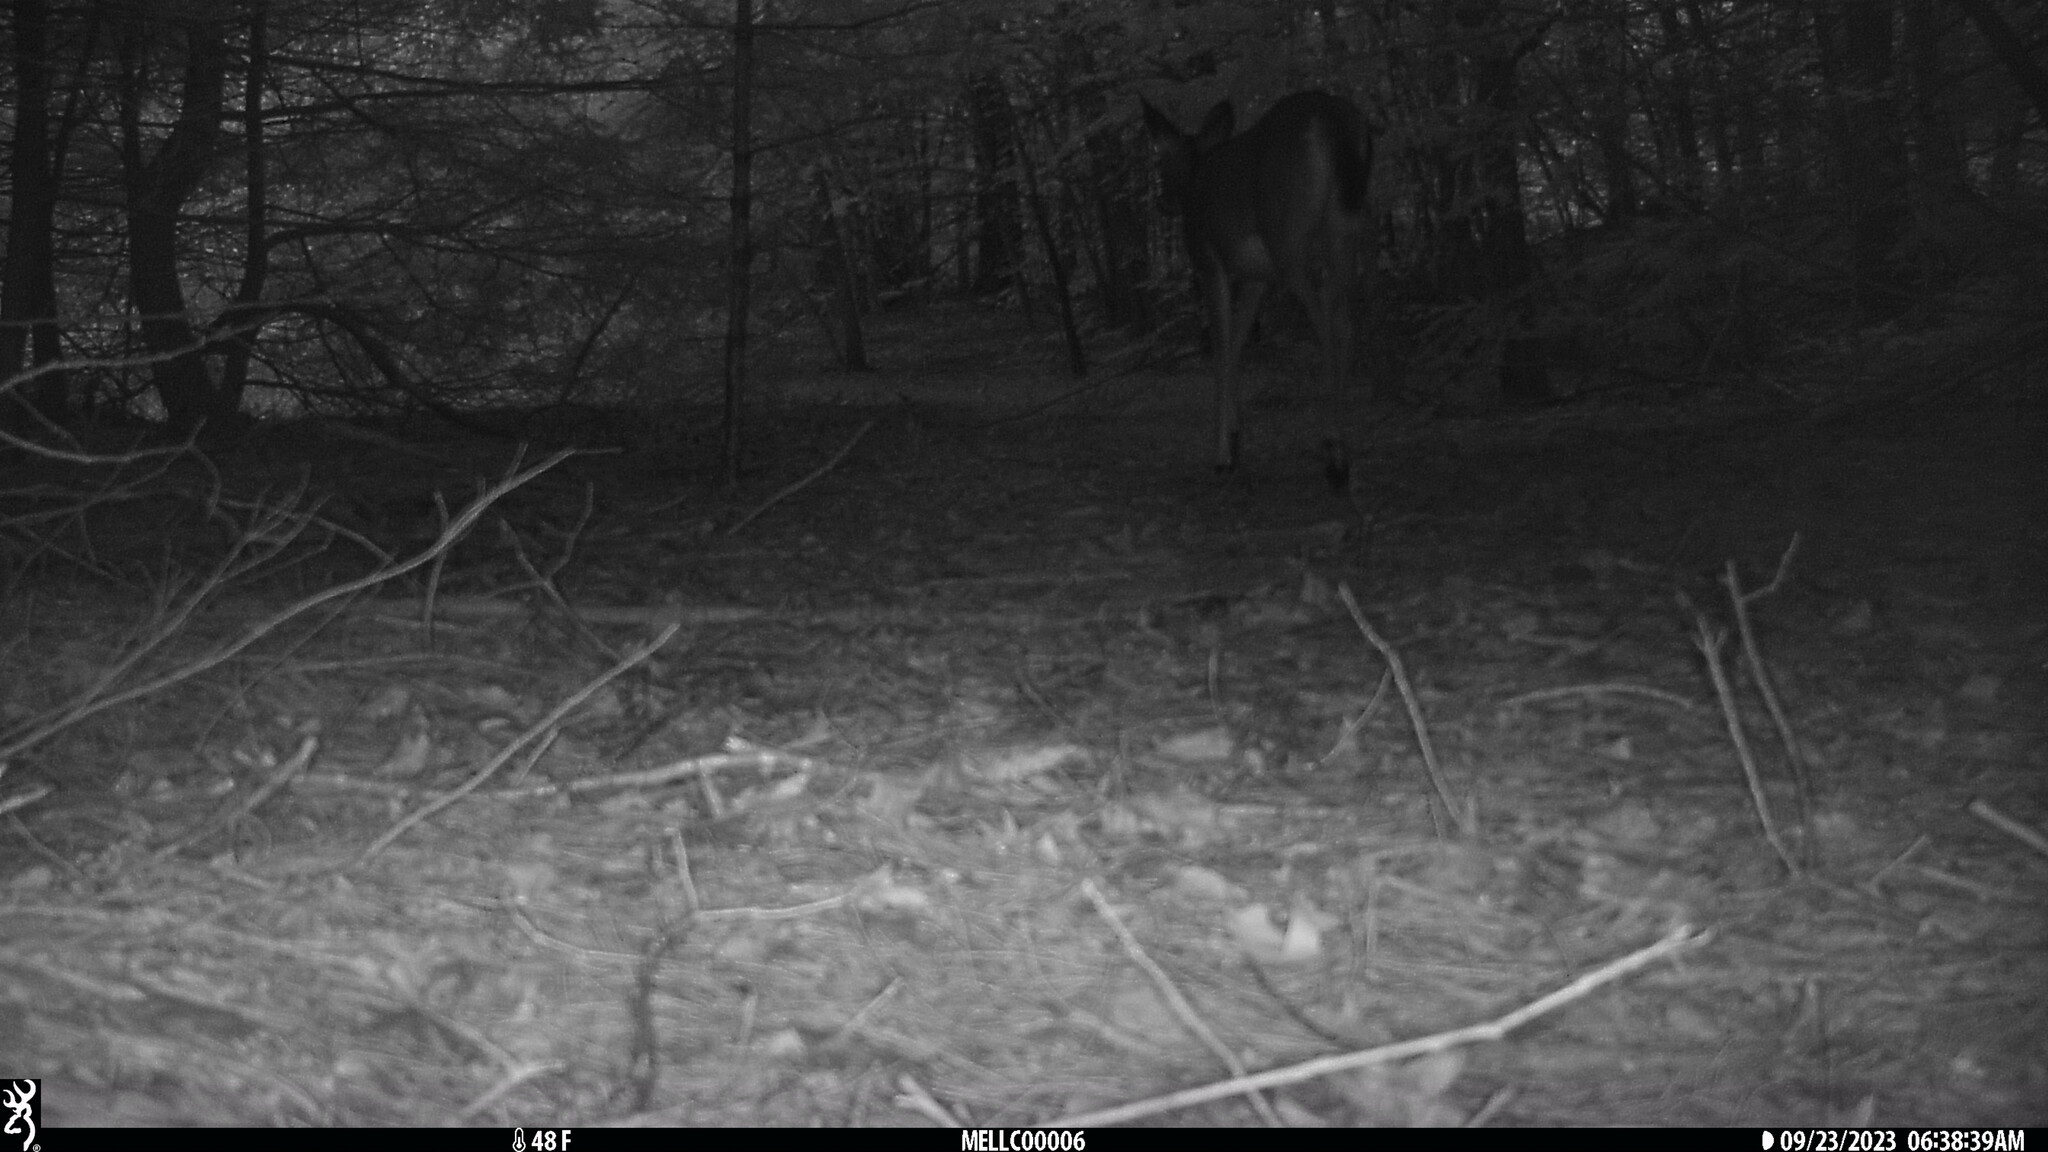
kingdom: Animalia
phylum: Chordata
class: Mammalia
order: Artiodactyla
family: Cervidae
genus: Odocoileus
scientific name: Odocoileus virginianus
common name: White-tailed deer
